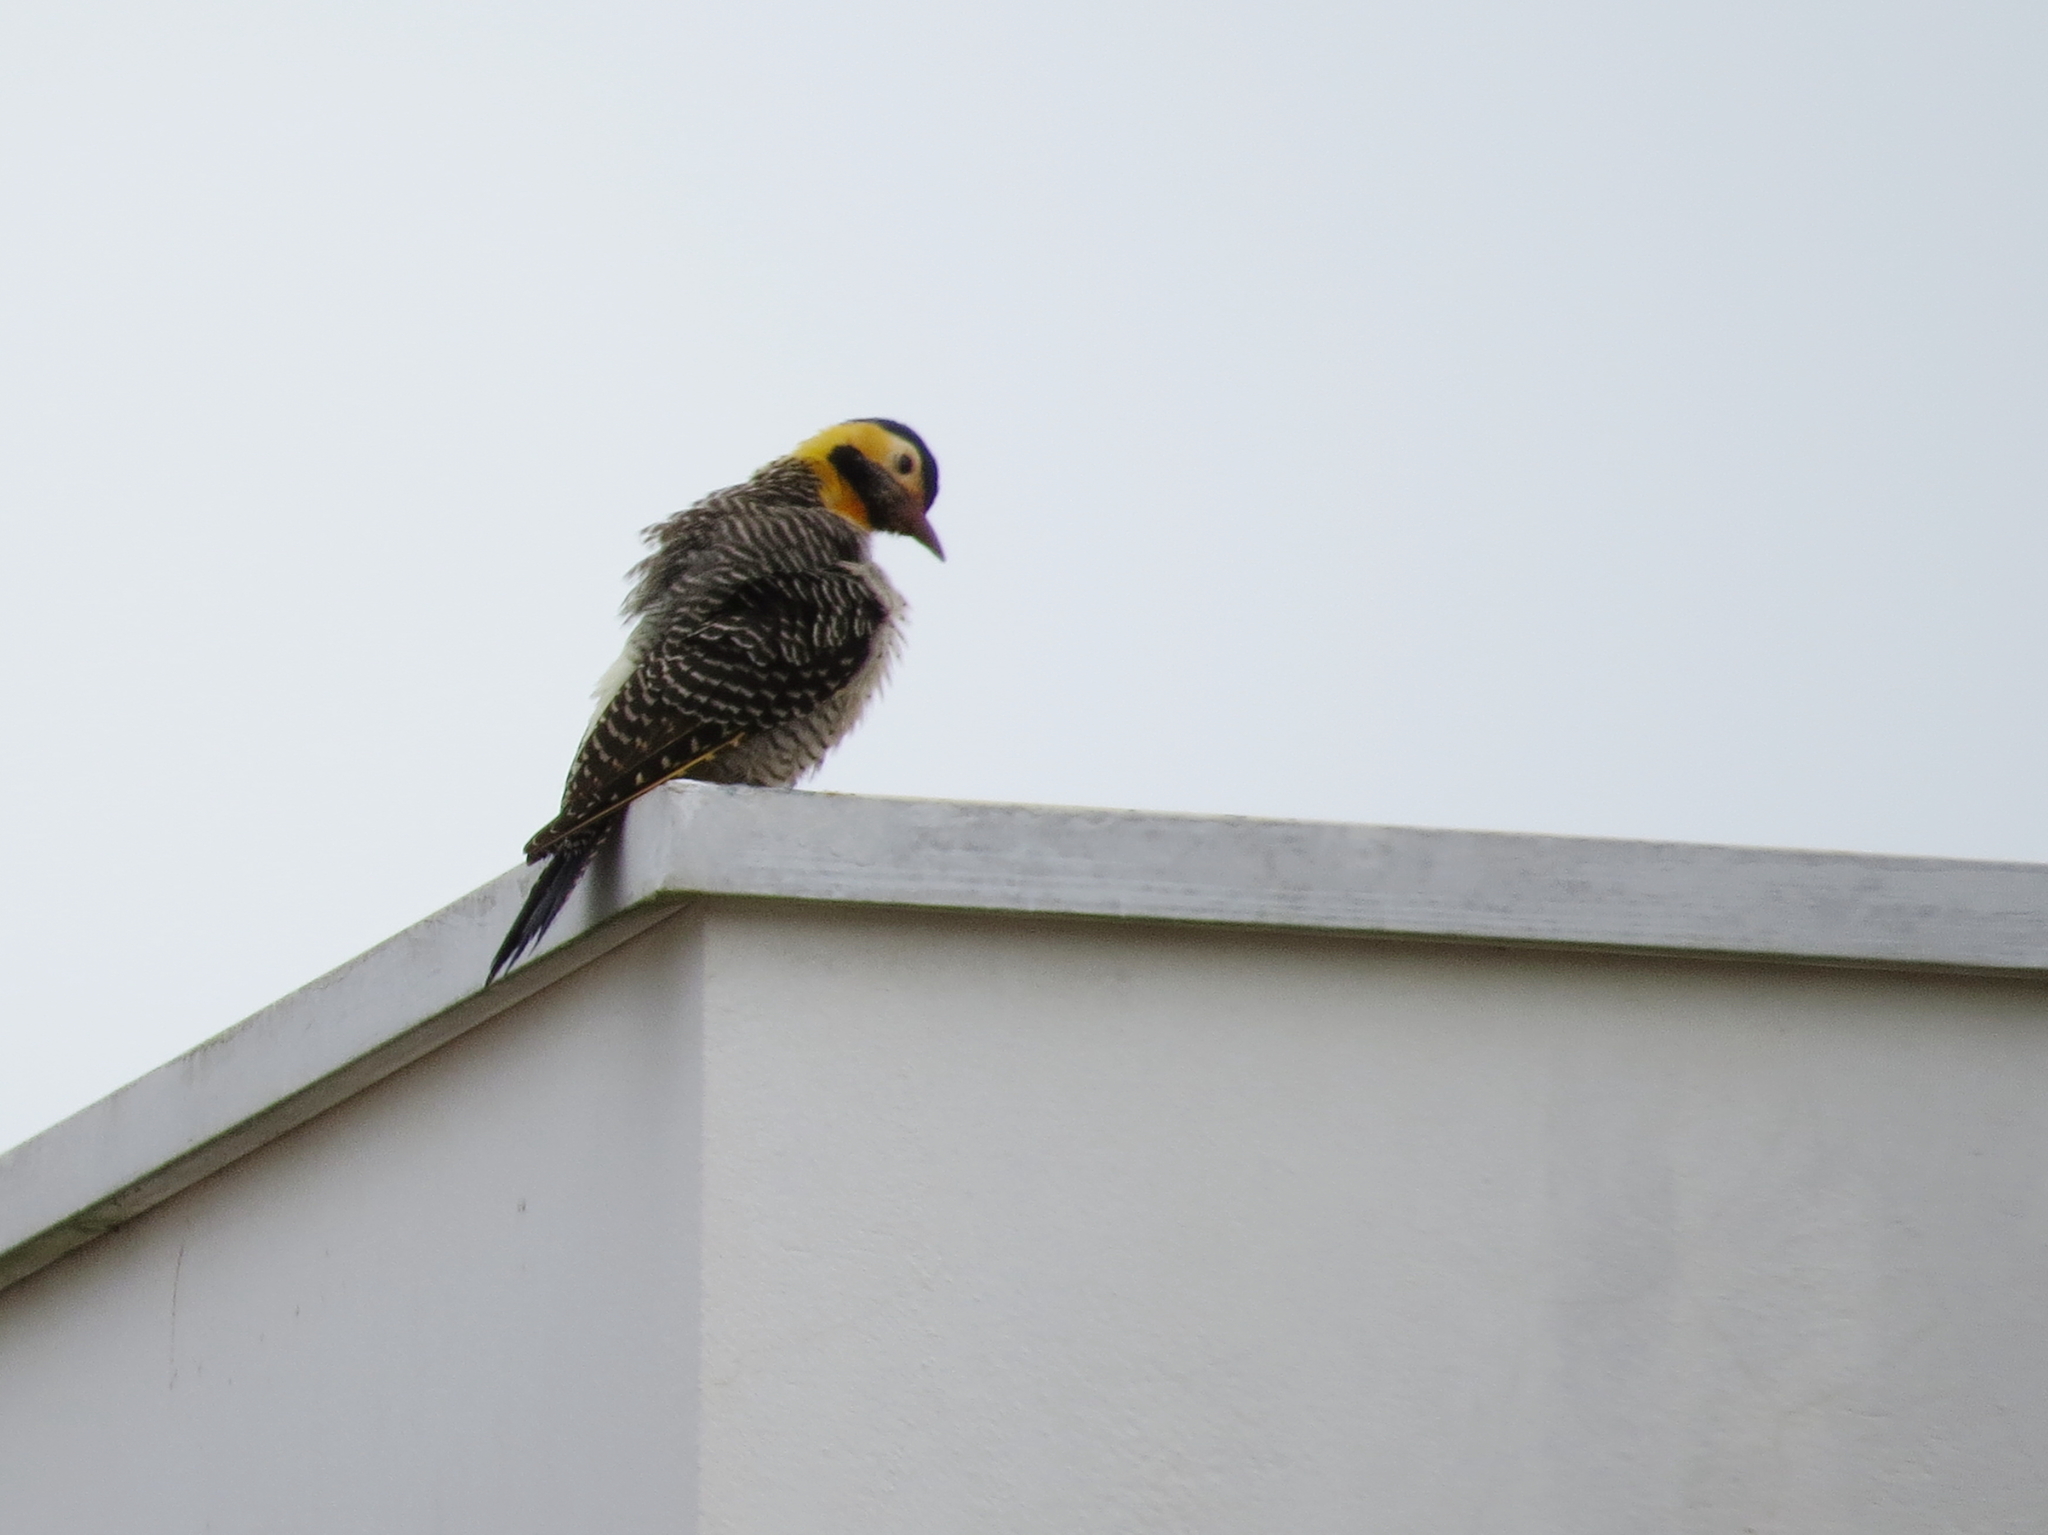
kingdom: Animalia
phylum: Chordata
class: Aves
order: Piciformes
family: Picidae
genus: Colaptes
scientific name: Colaptes campestris
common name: Campo flicker
